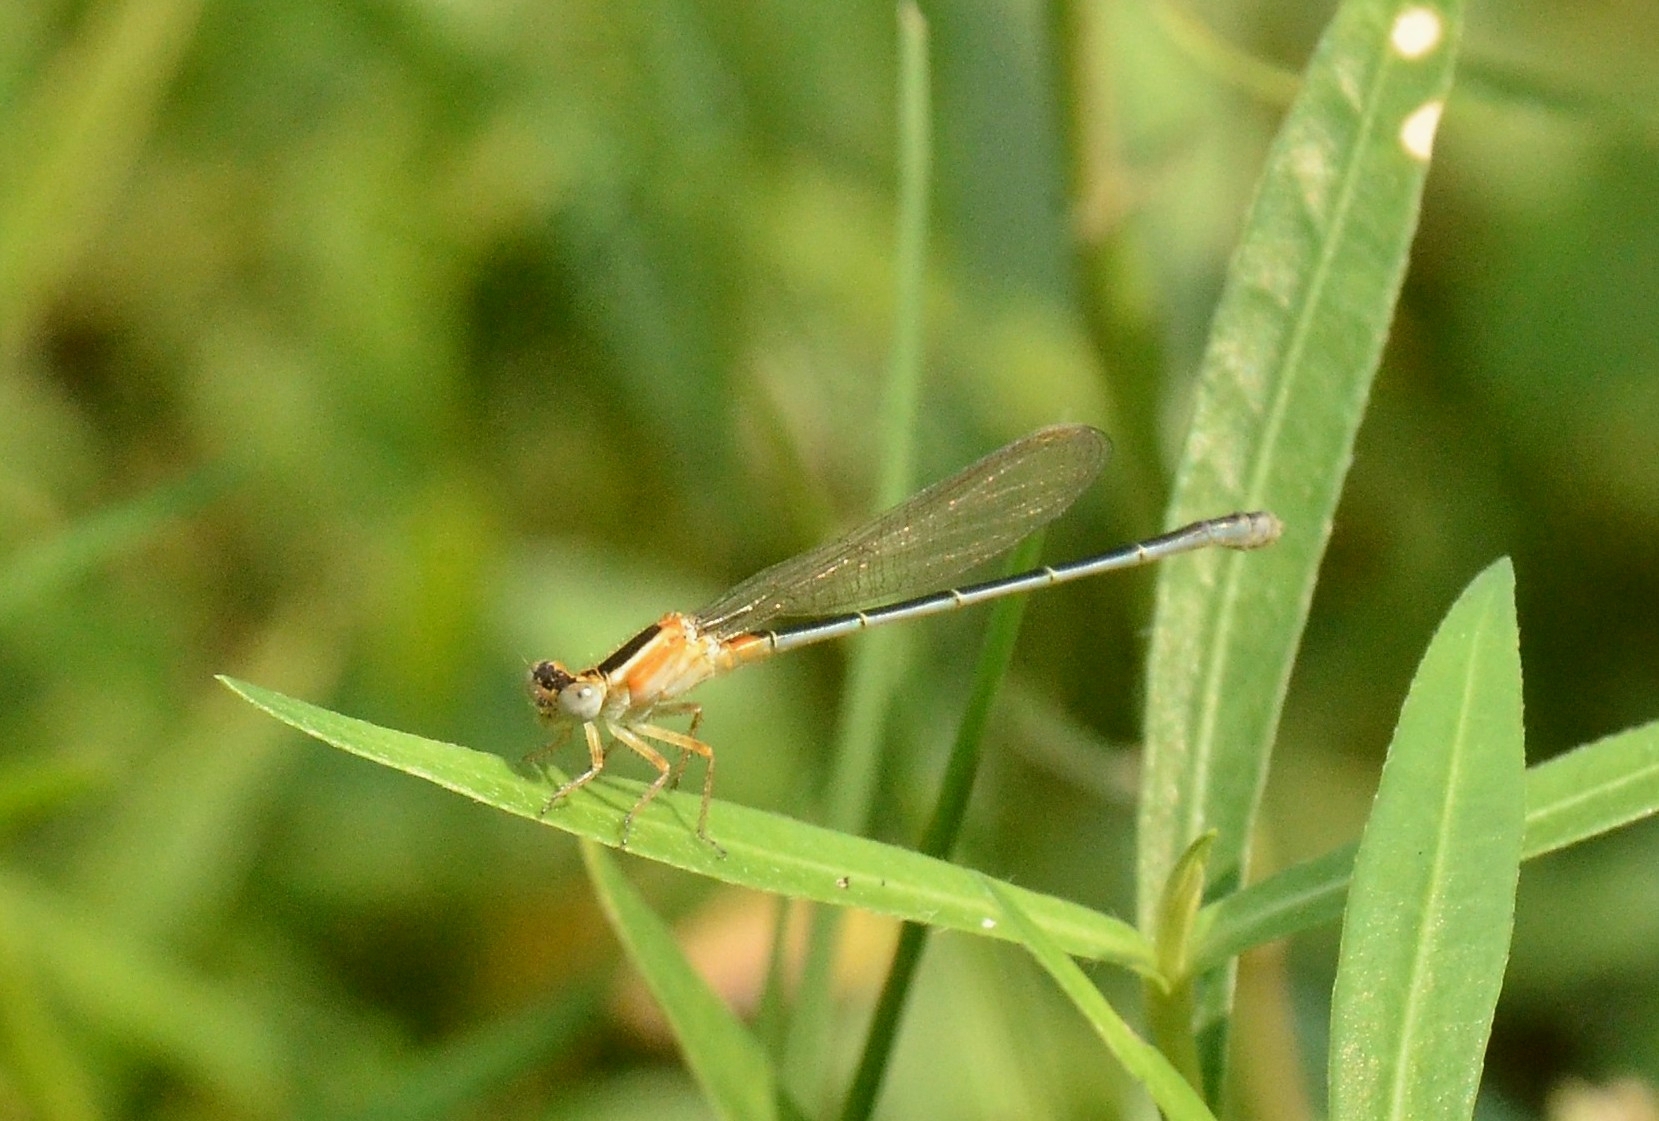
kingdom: Animalia
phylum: Arthropoda
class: Insecta
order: Odonata
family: Coenagrionidae
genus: Ischnura
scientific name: Ischnura senegalensis
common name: Tropical bluetail
